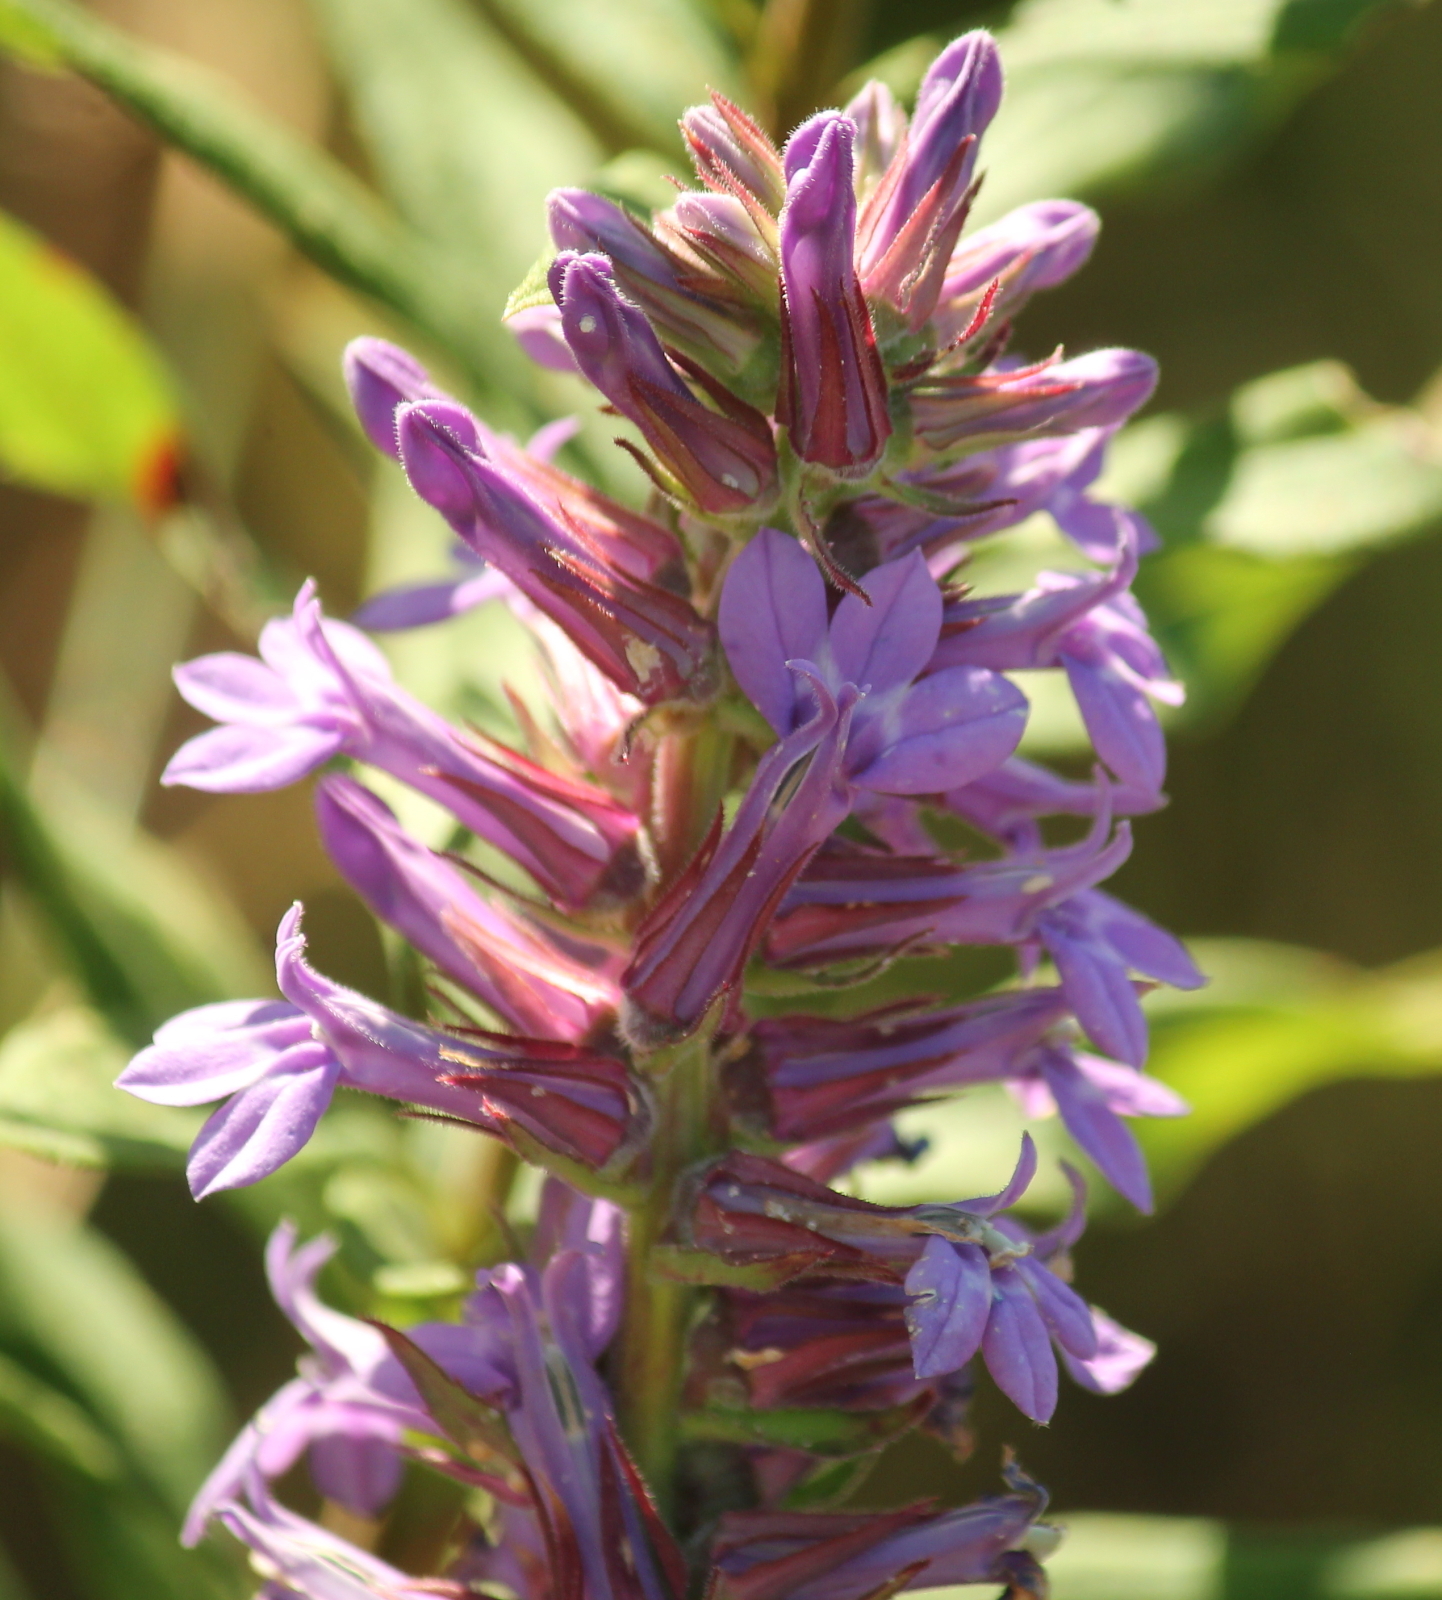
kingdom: Plantae
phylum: Tracheophyta
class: Magnoliopsida
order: Asterales
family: Campanulaceae
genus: Lobelia
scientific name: Lobelia puberula
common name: Purple dewdrop
